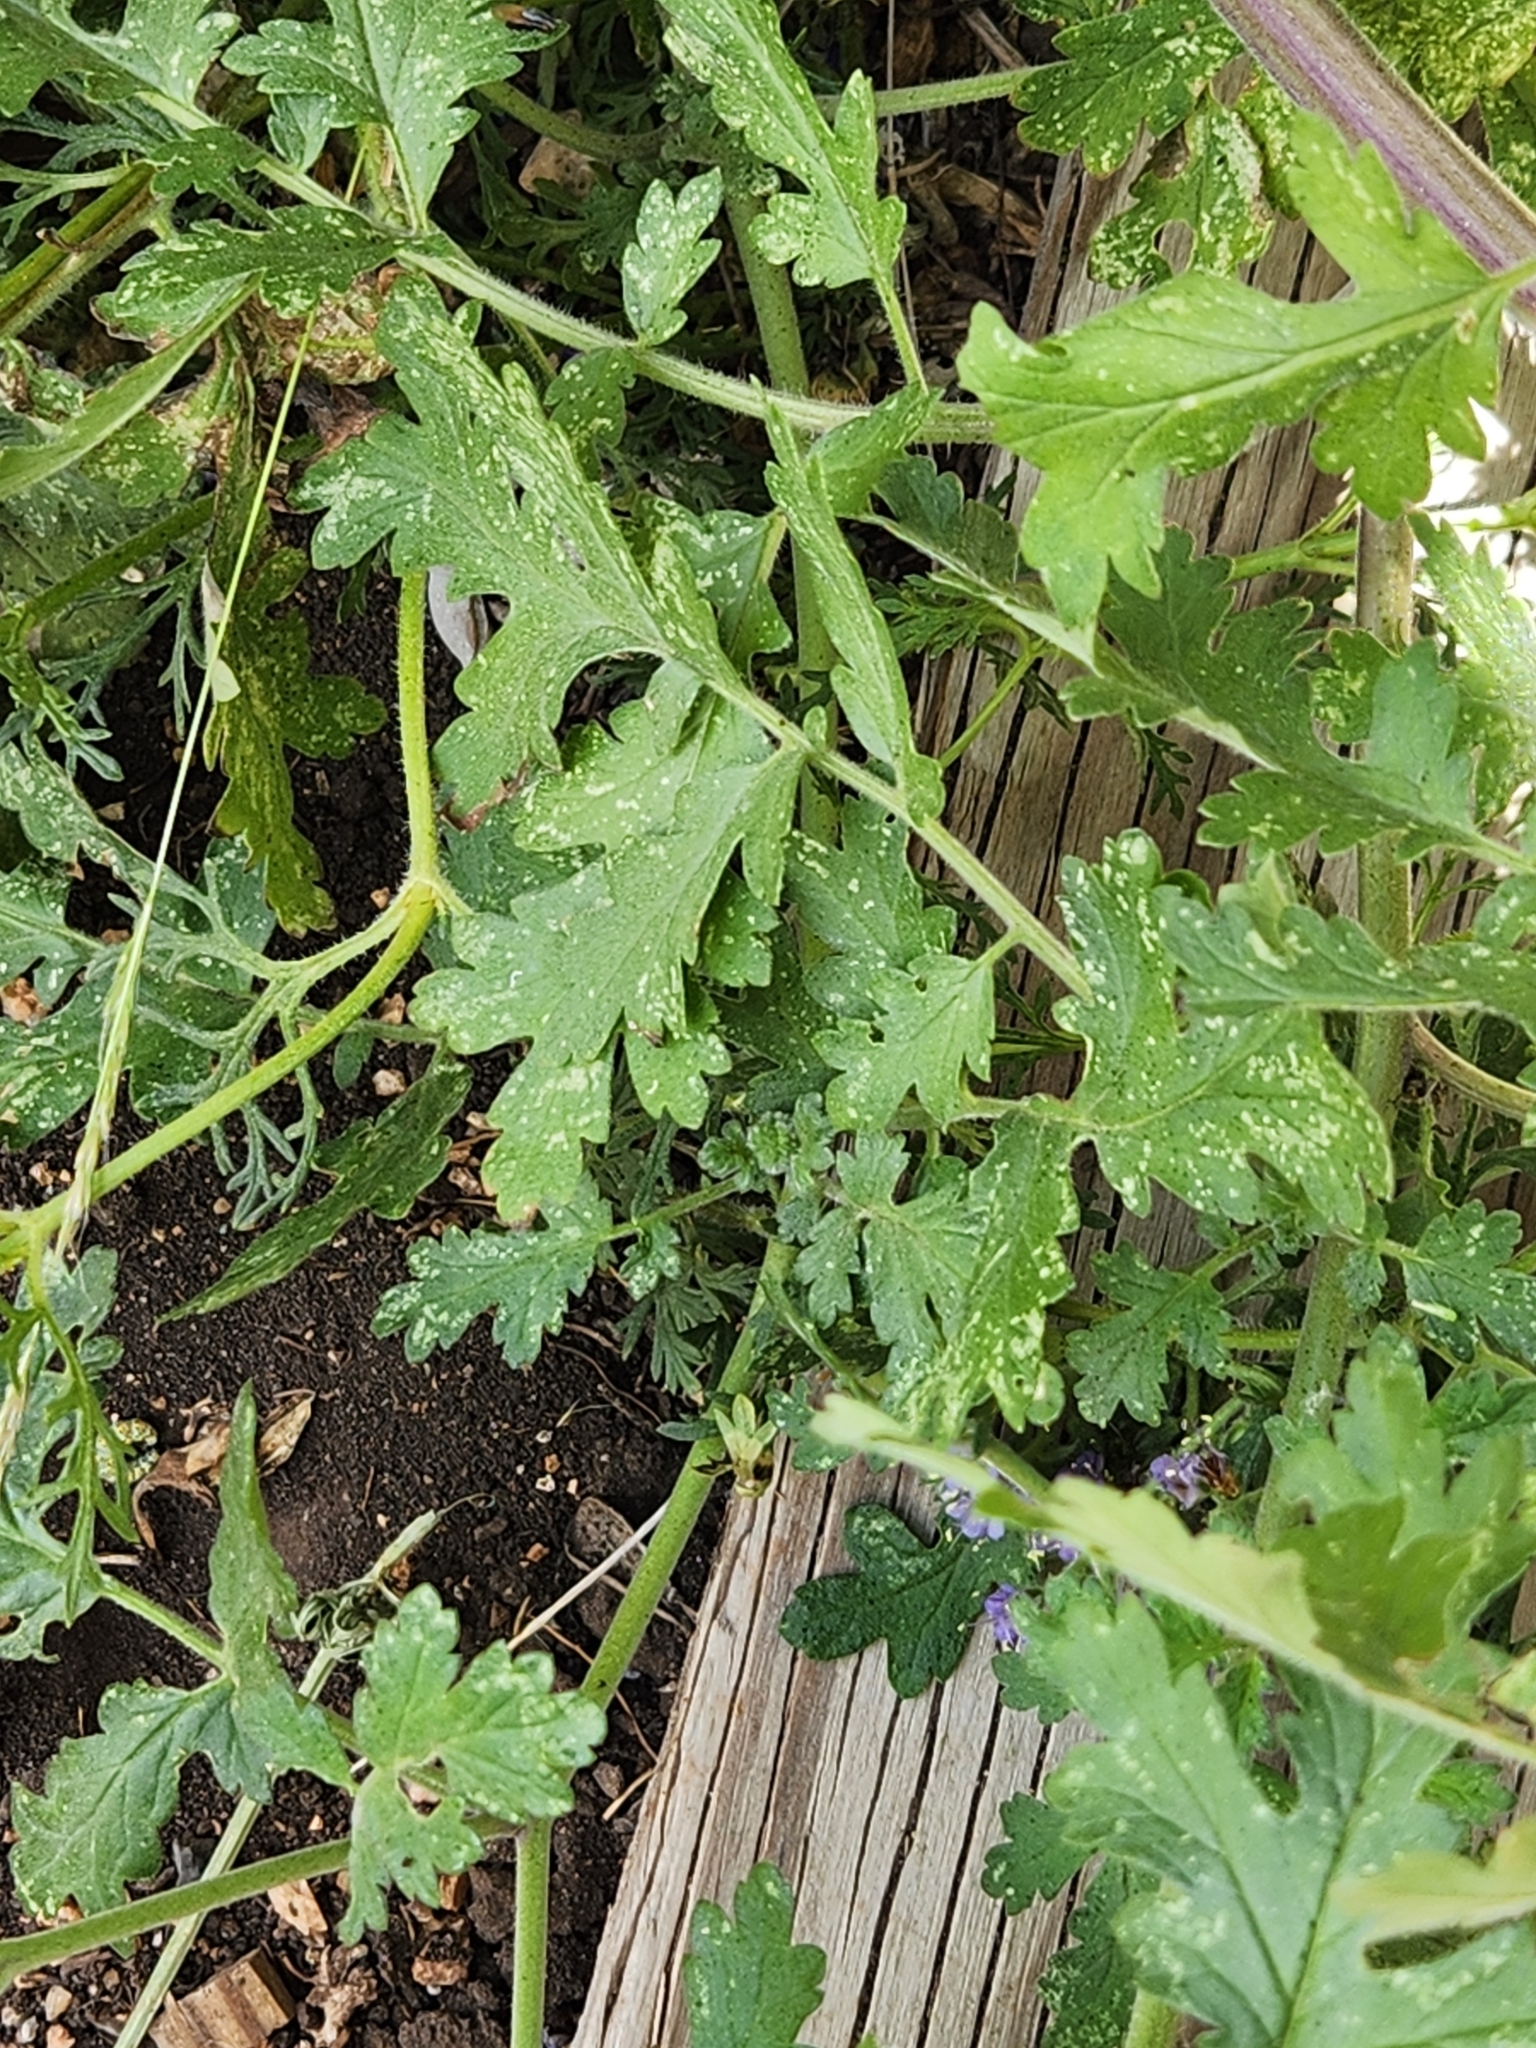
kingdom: Plantae
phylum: Tracheophyta
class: Magnoliopsida
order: Boraginales
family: Hydrophyllaceae
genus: Phacelia
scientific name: Phacelia congesta
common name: Blue curls
